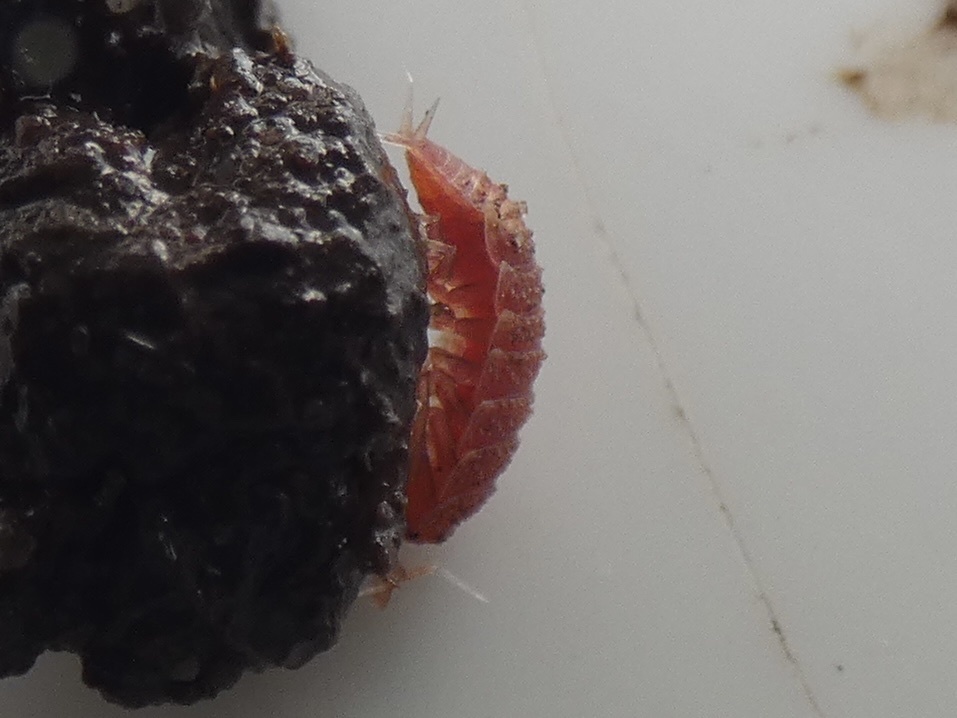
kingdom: Animalia
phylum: Arthropoda
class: Malacostraca
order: Isopoda
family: Trichoniscidae
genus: Androniscus
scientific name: Androniscus dentiger
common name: Rosy woodlouse
